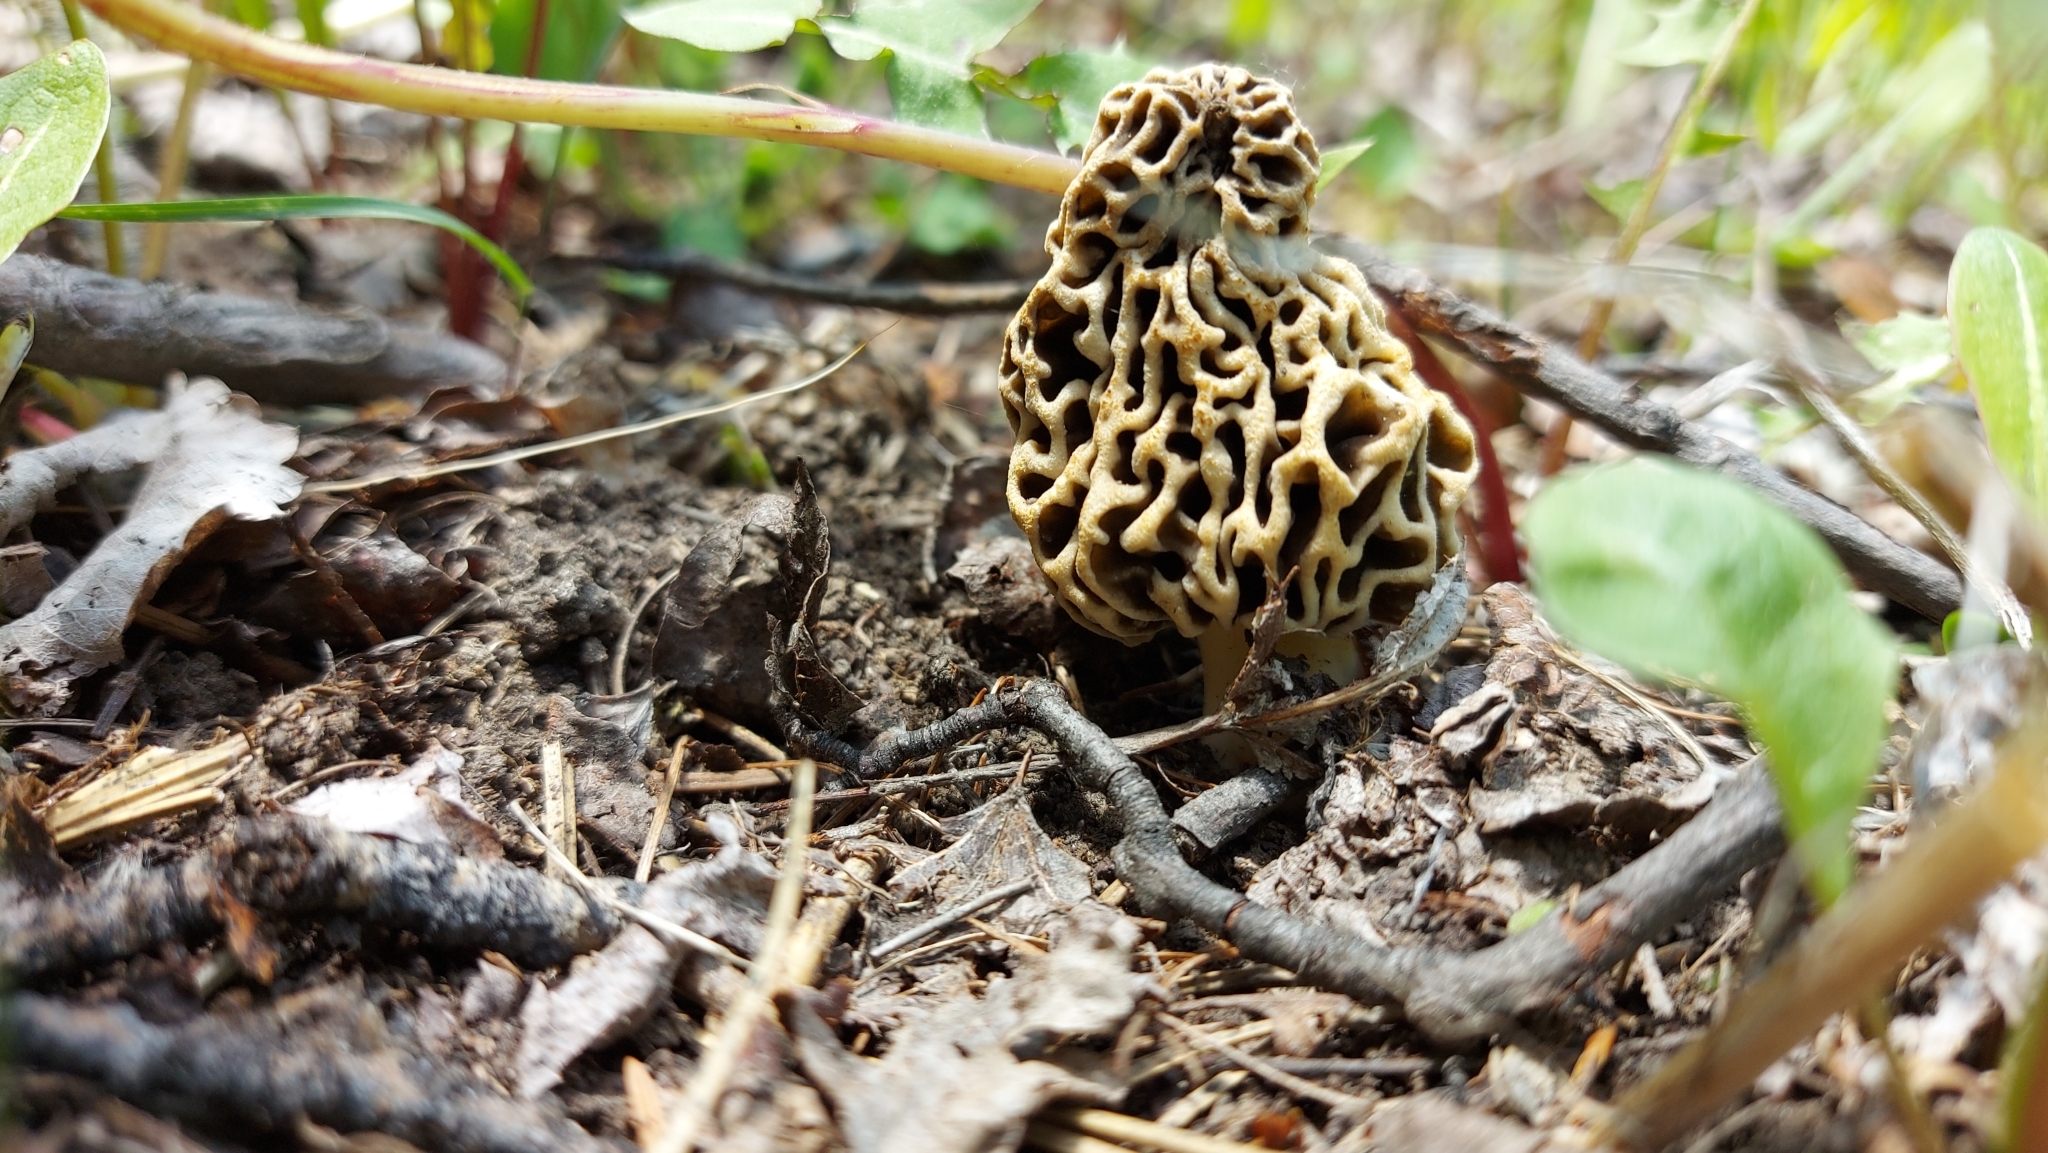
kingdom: Fungi
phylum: Ascomycota
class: Pezizomycetes
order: Pezizales
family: Morchellaceae
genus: Morchella
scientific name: Morchella americana
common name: White morel
